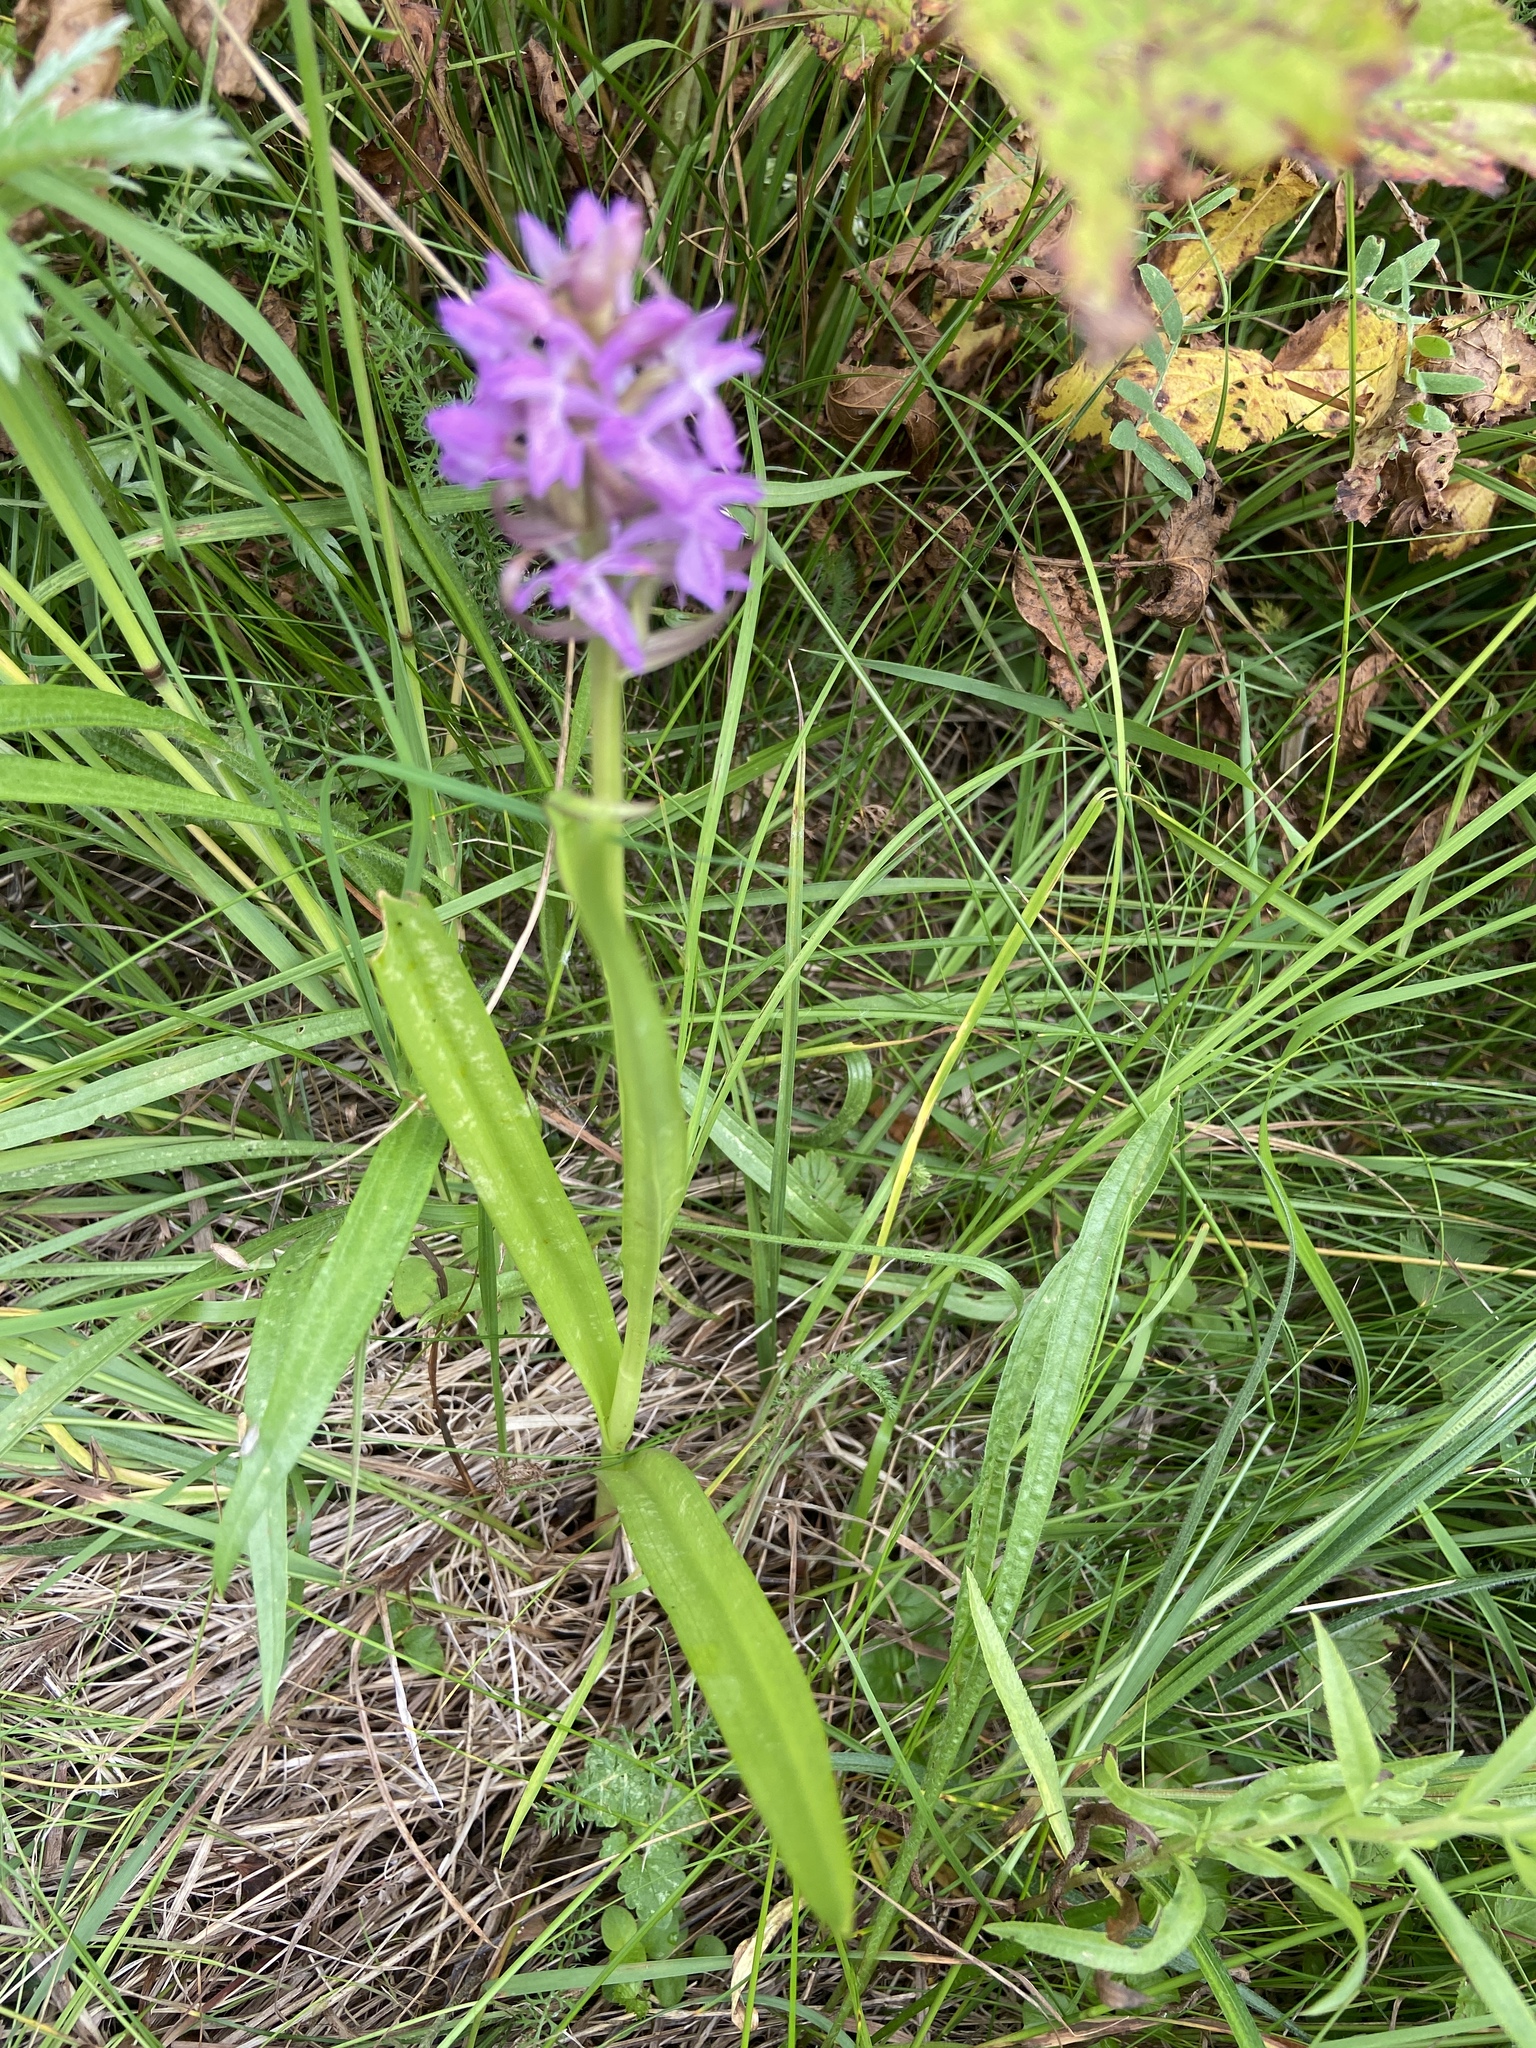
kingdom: Plantae
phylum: Tracheophyta
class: Liliopsida
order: Asparagales
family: Orchidaceae
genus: Dactylorhiza
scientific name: Dactylorhiza incarnata
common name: Early marsh-orchid
